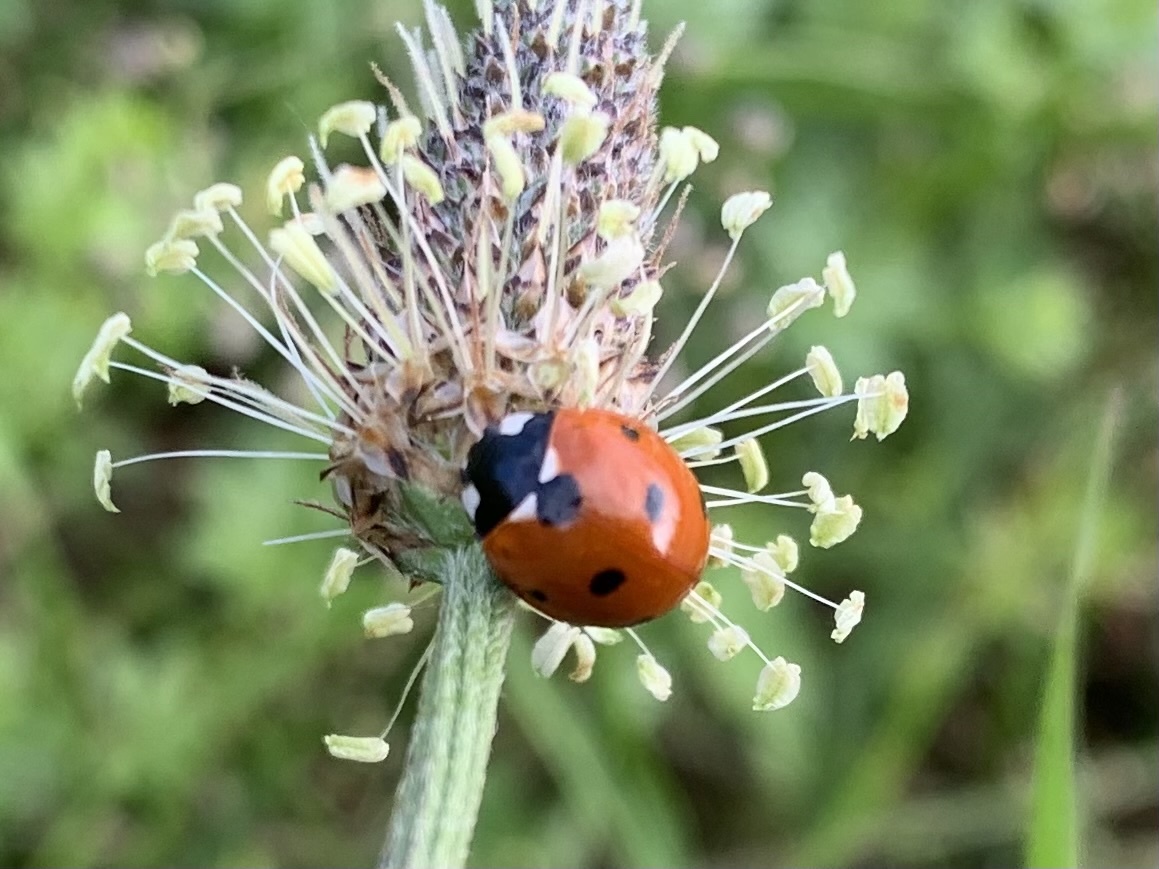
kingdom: Animalia
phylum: Arthropoda
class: Insecta
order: Coleoptera
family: Coccinellidae
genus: Coccinella
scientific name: Coccinella septempunctata
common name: Sevenspotted lady beetle
